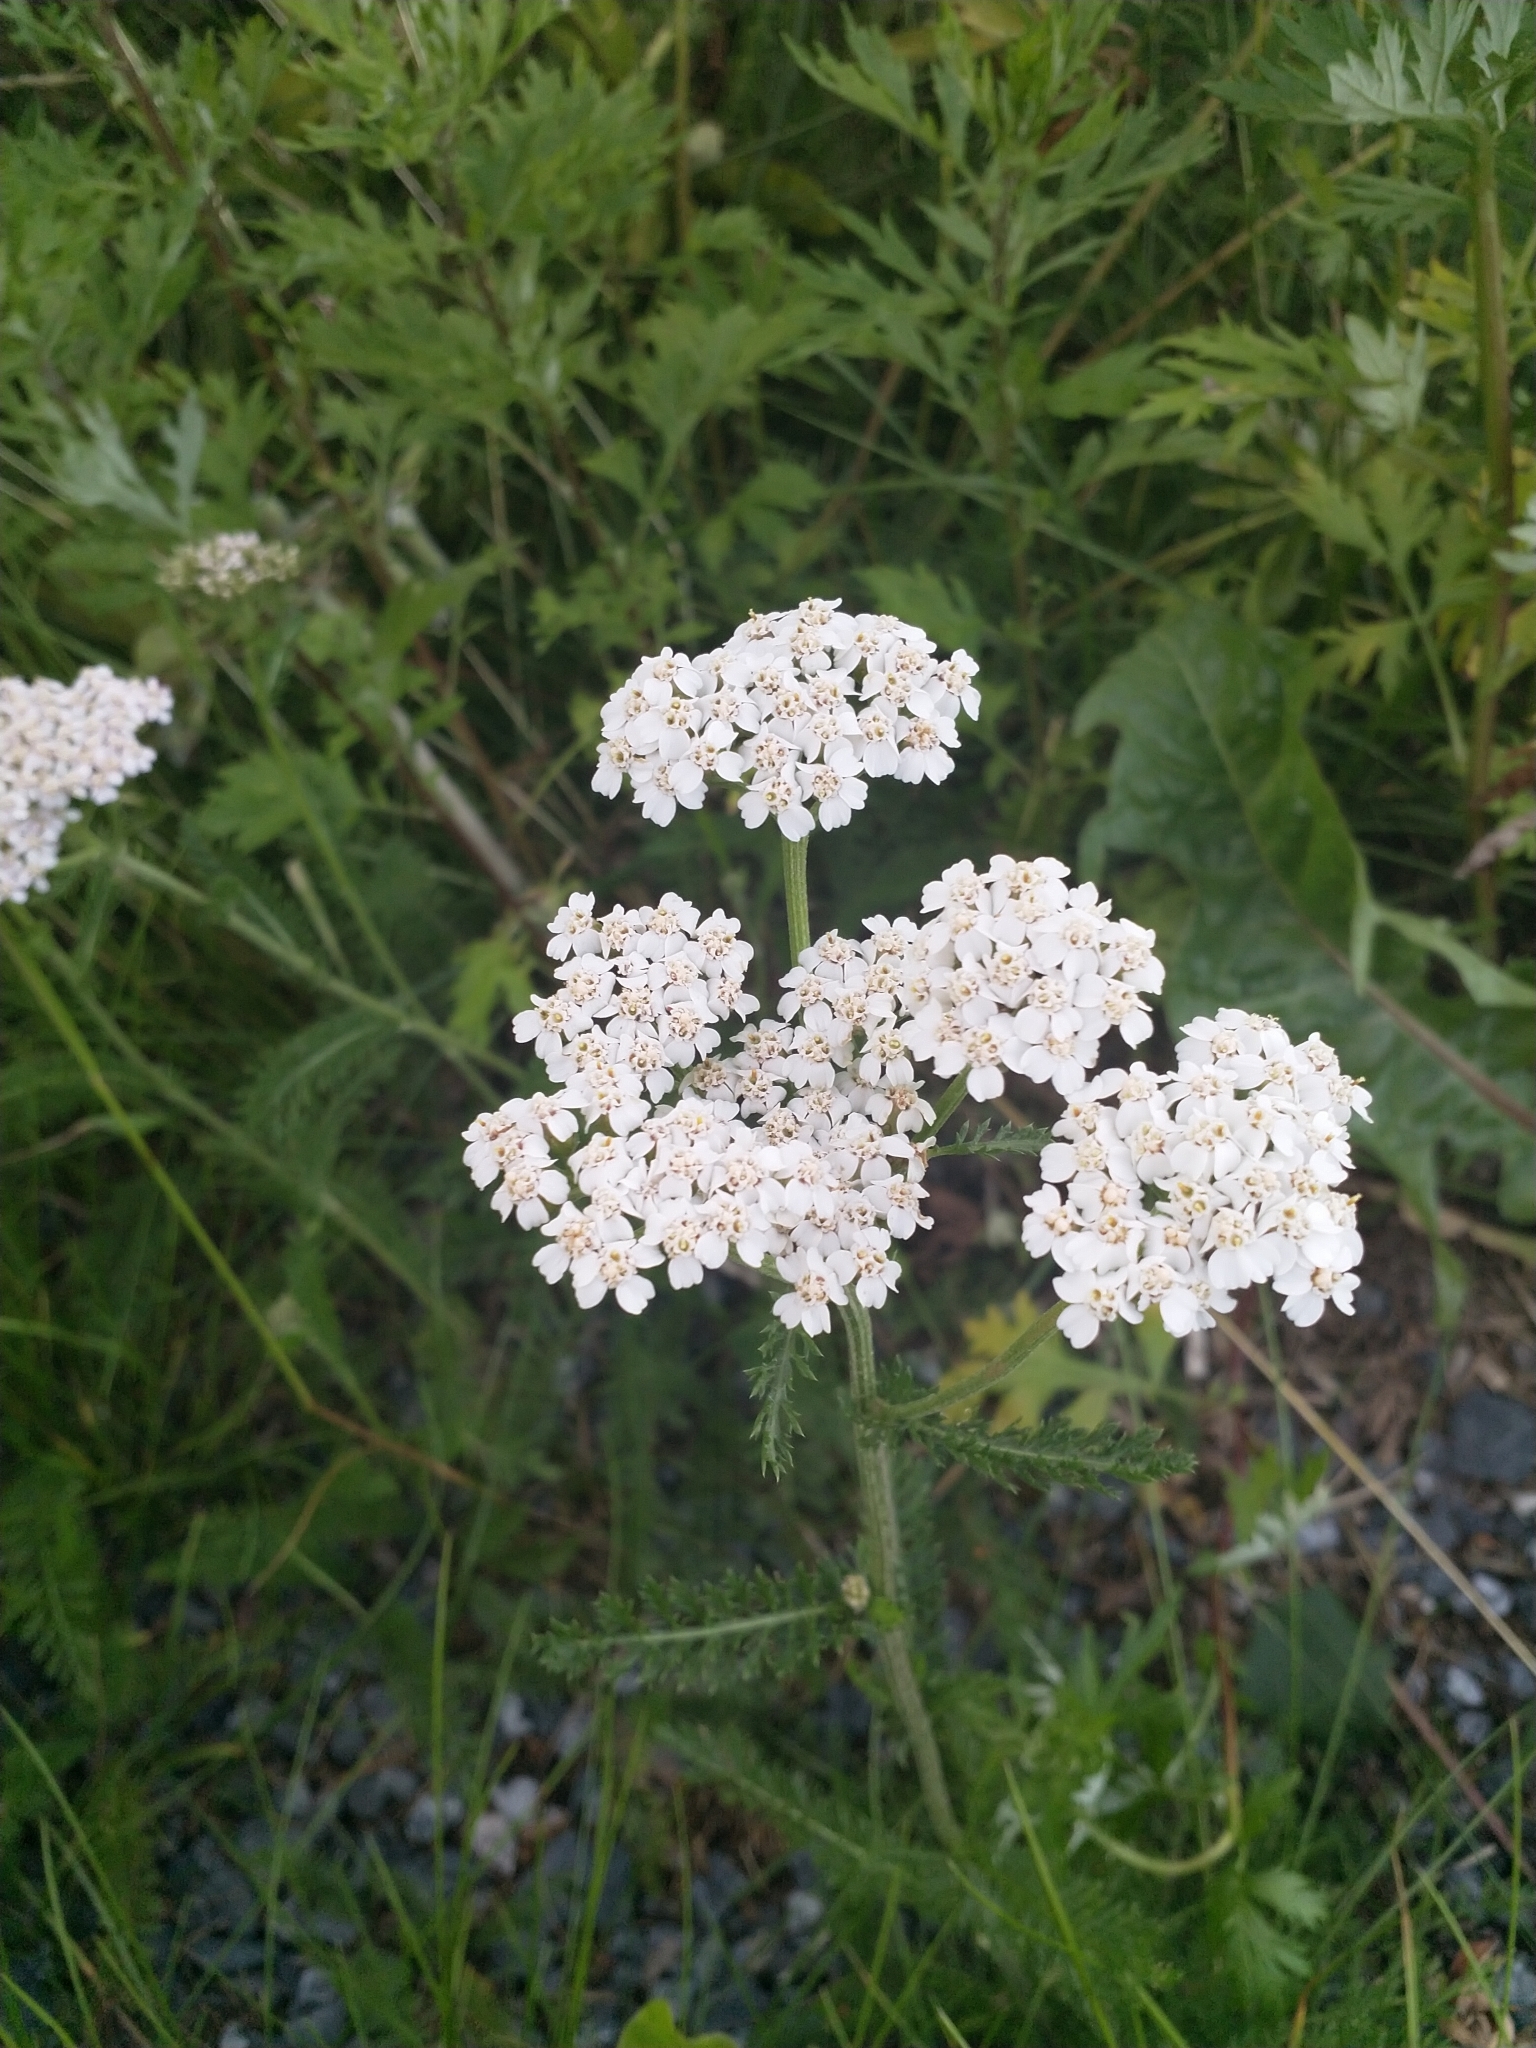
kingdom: Plantae
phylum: Tracheophyta
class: Magnoliopsida
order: Asterales
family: Asteraceae
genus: Achillea
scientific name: Achillea millefolium
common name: Yarrow
